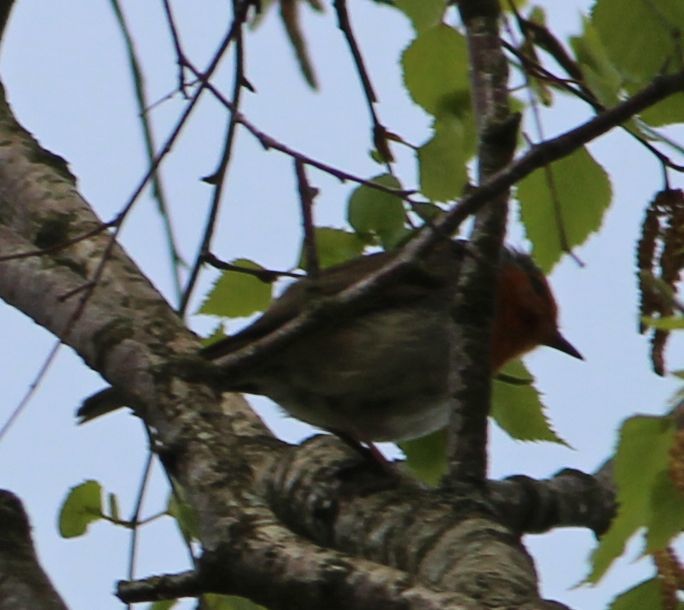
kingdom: Animalia
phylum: Chordata
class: Aves
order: Passeriformes
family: Muscicapidae
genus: Erithacus
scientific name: Erithacus rubecula
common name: European robin
